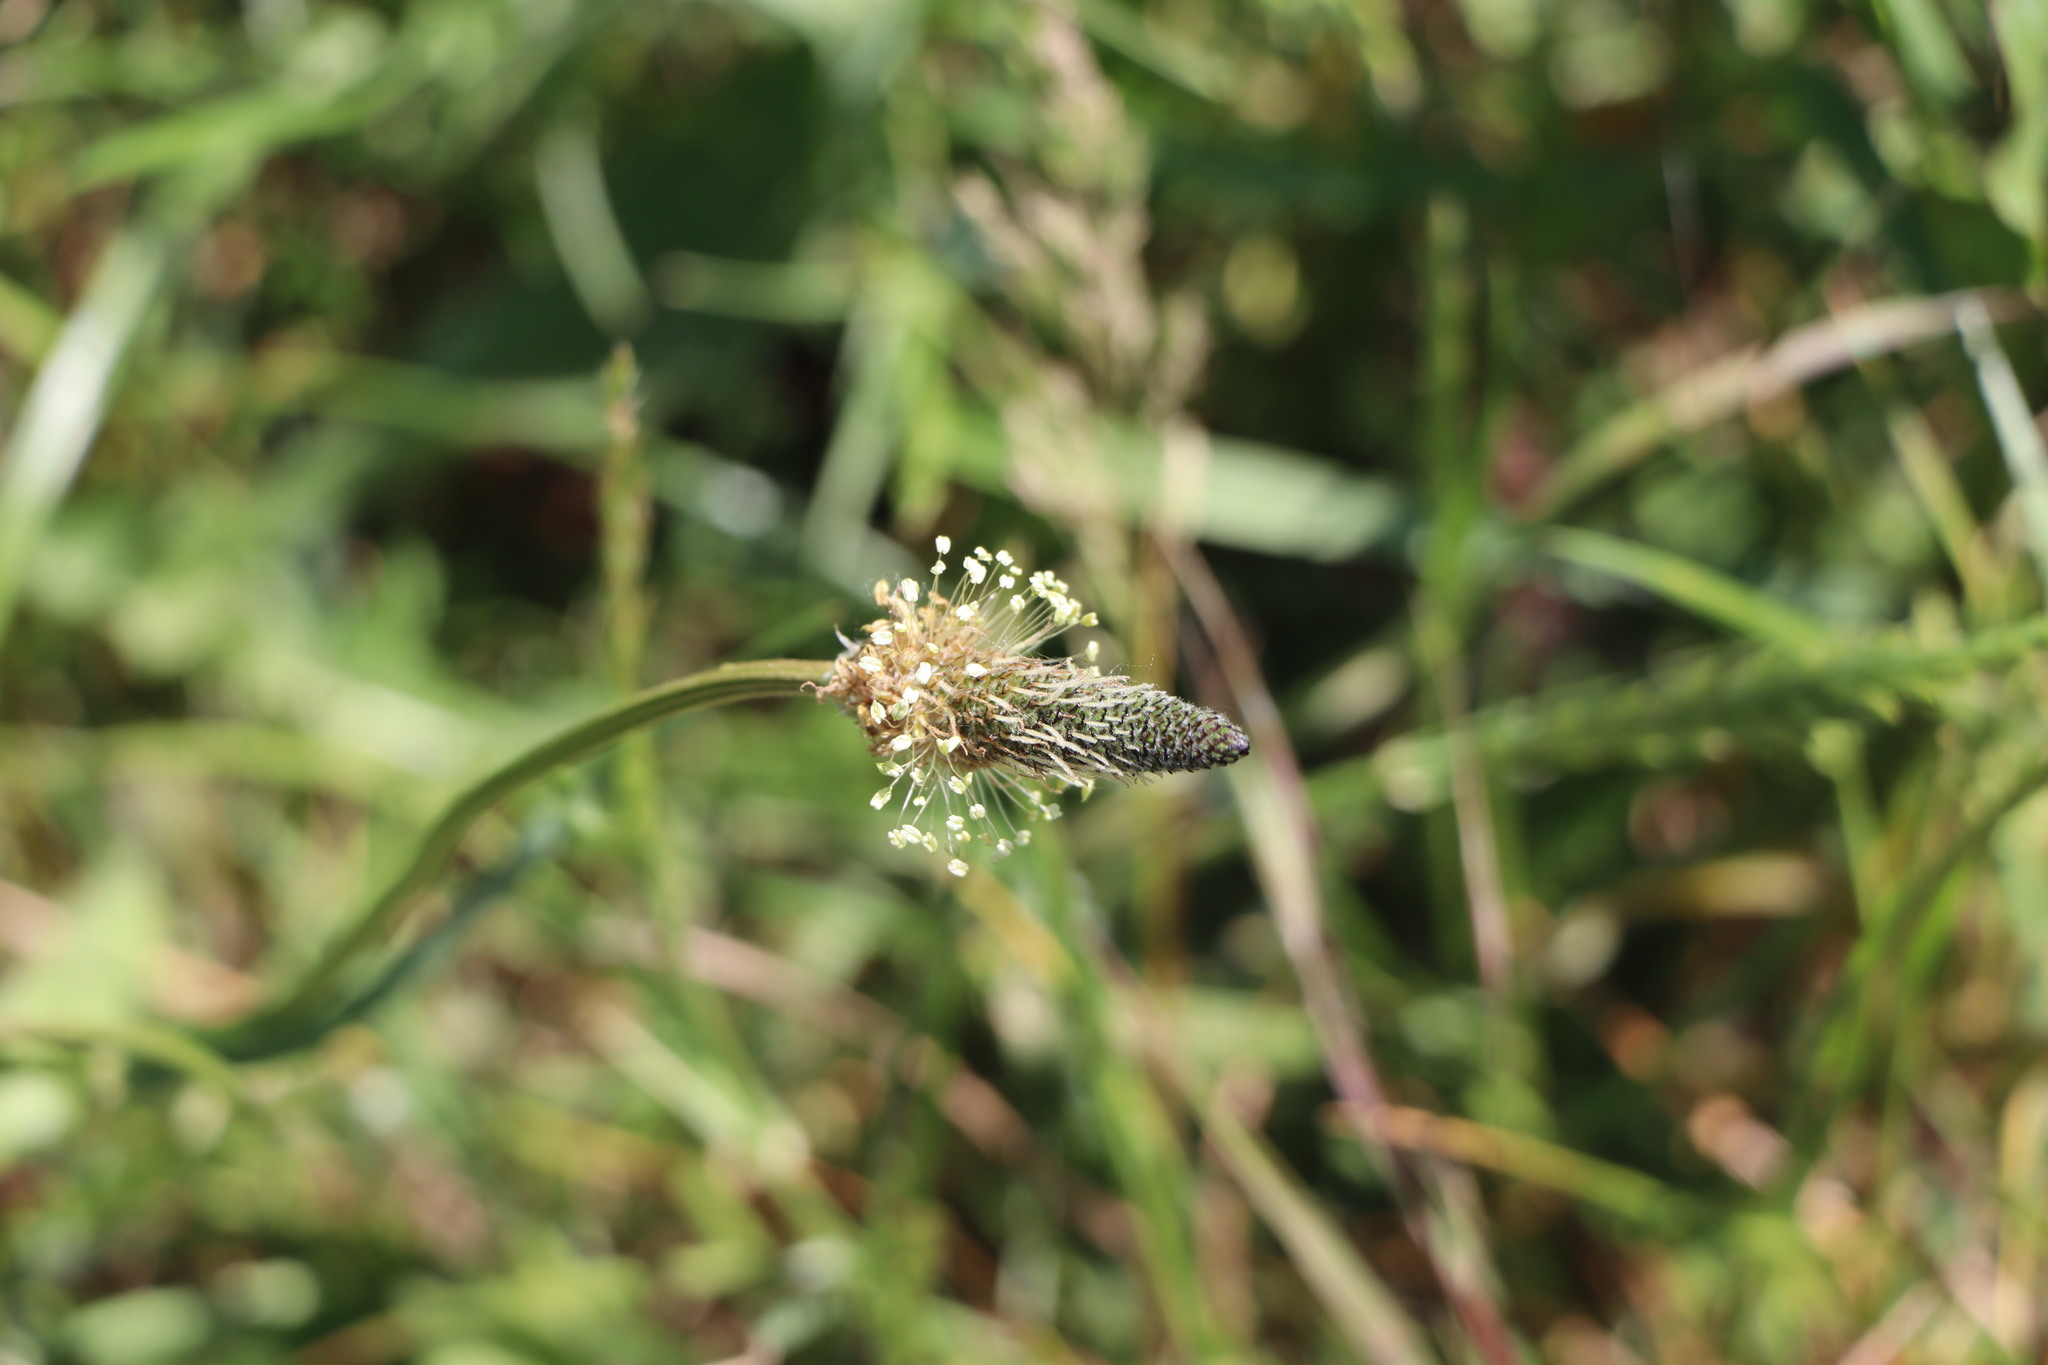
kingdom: Plantae
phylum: Tracheophyta
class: Magnoliopsida
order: Lamiales
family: Plantaginaceae
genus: Plantago
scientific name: Plantago lanceolata
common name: Ribwort plantain
